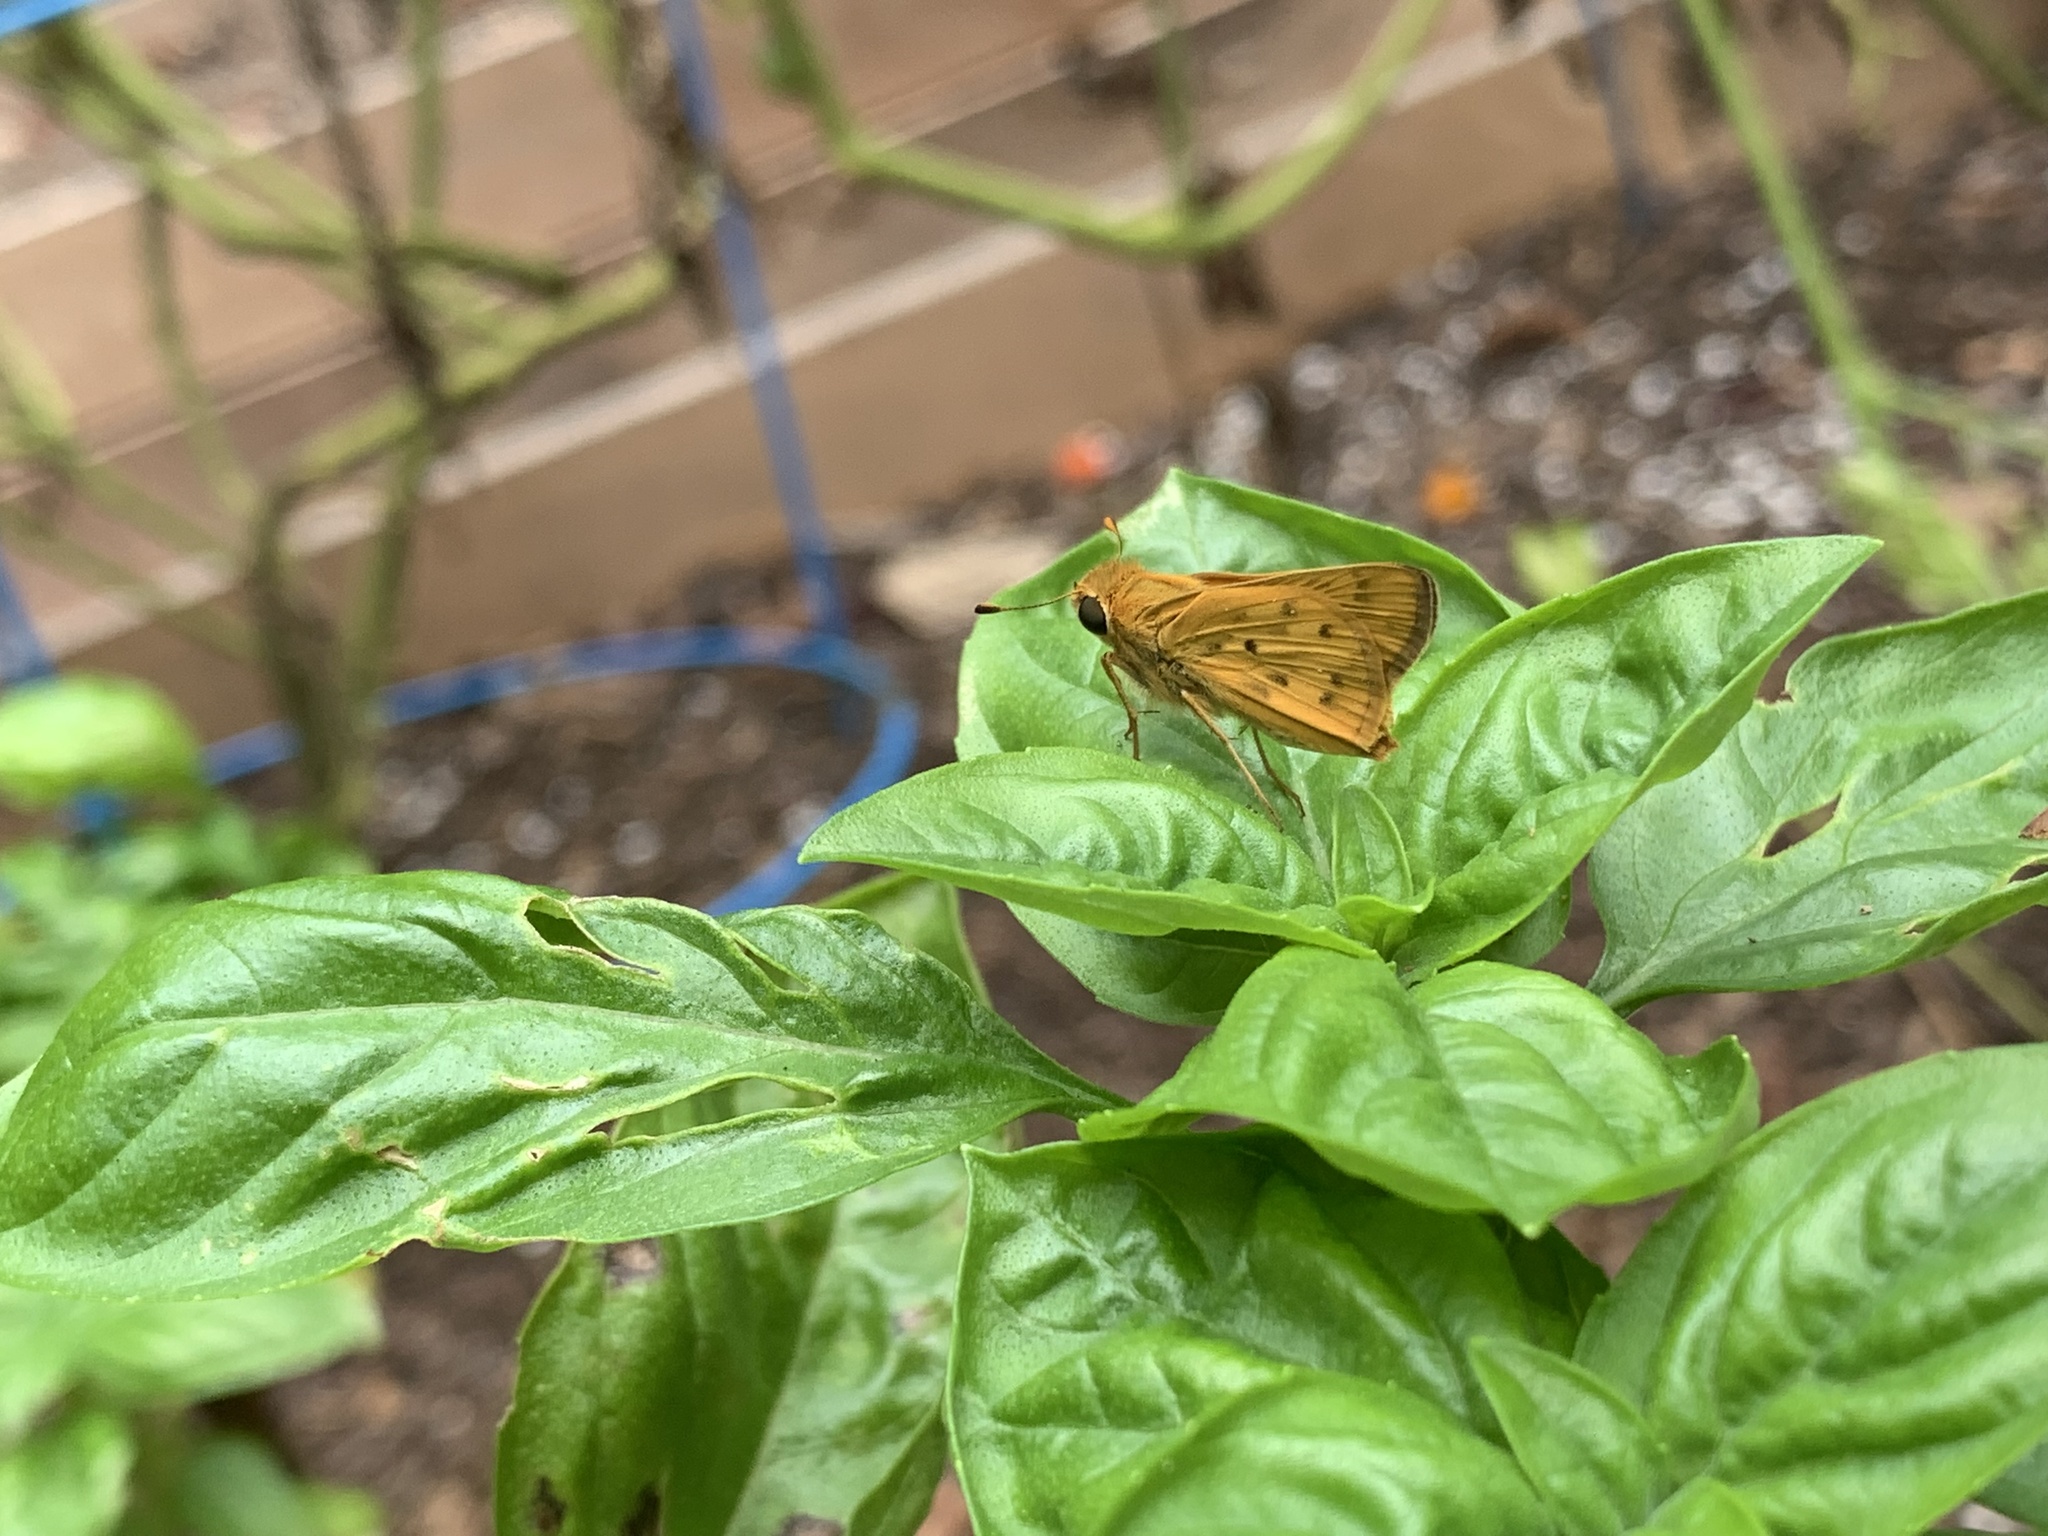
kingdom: Animalia
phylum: Arthropoda
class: Insecta
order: Lepidoptera
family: Hesperiidae
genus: Hylephila
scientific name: Hylephila phyleus
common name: Fiery skipper
